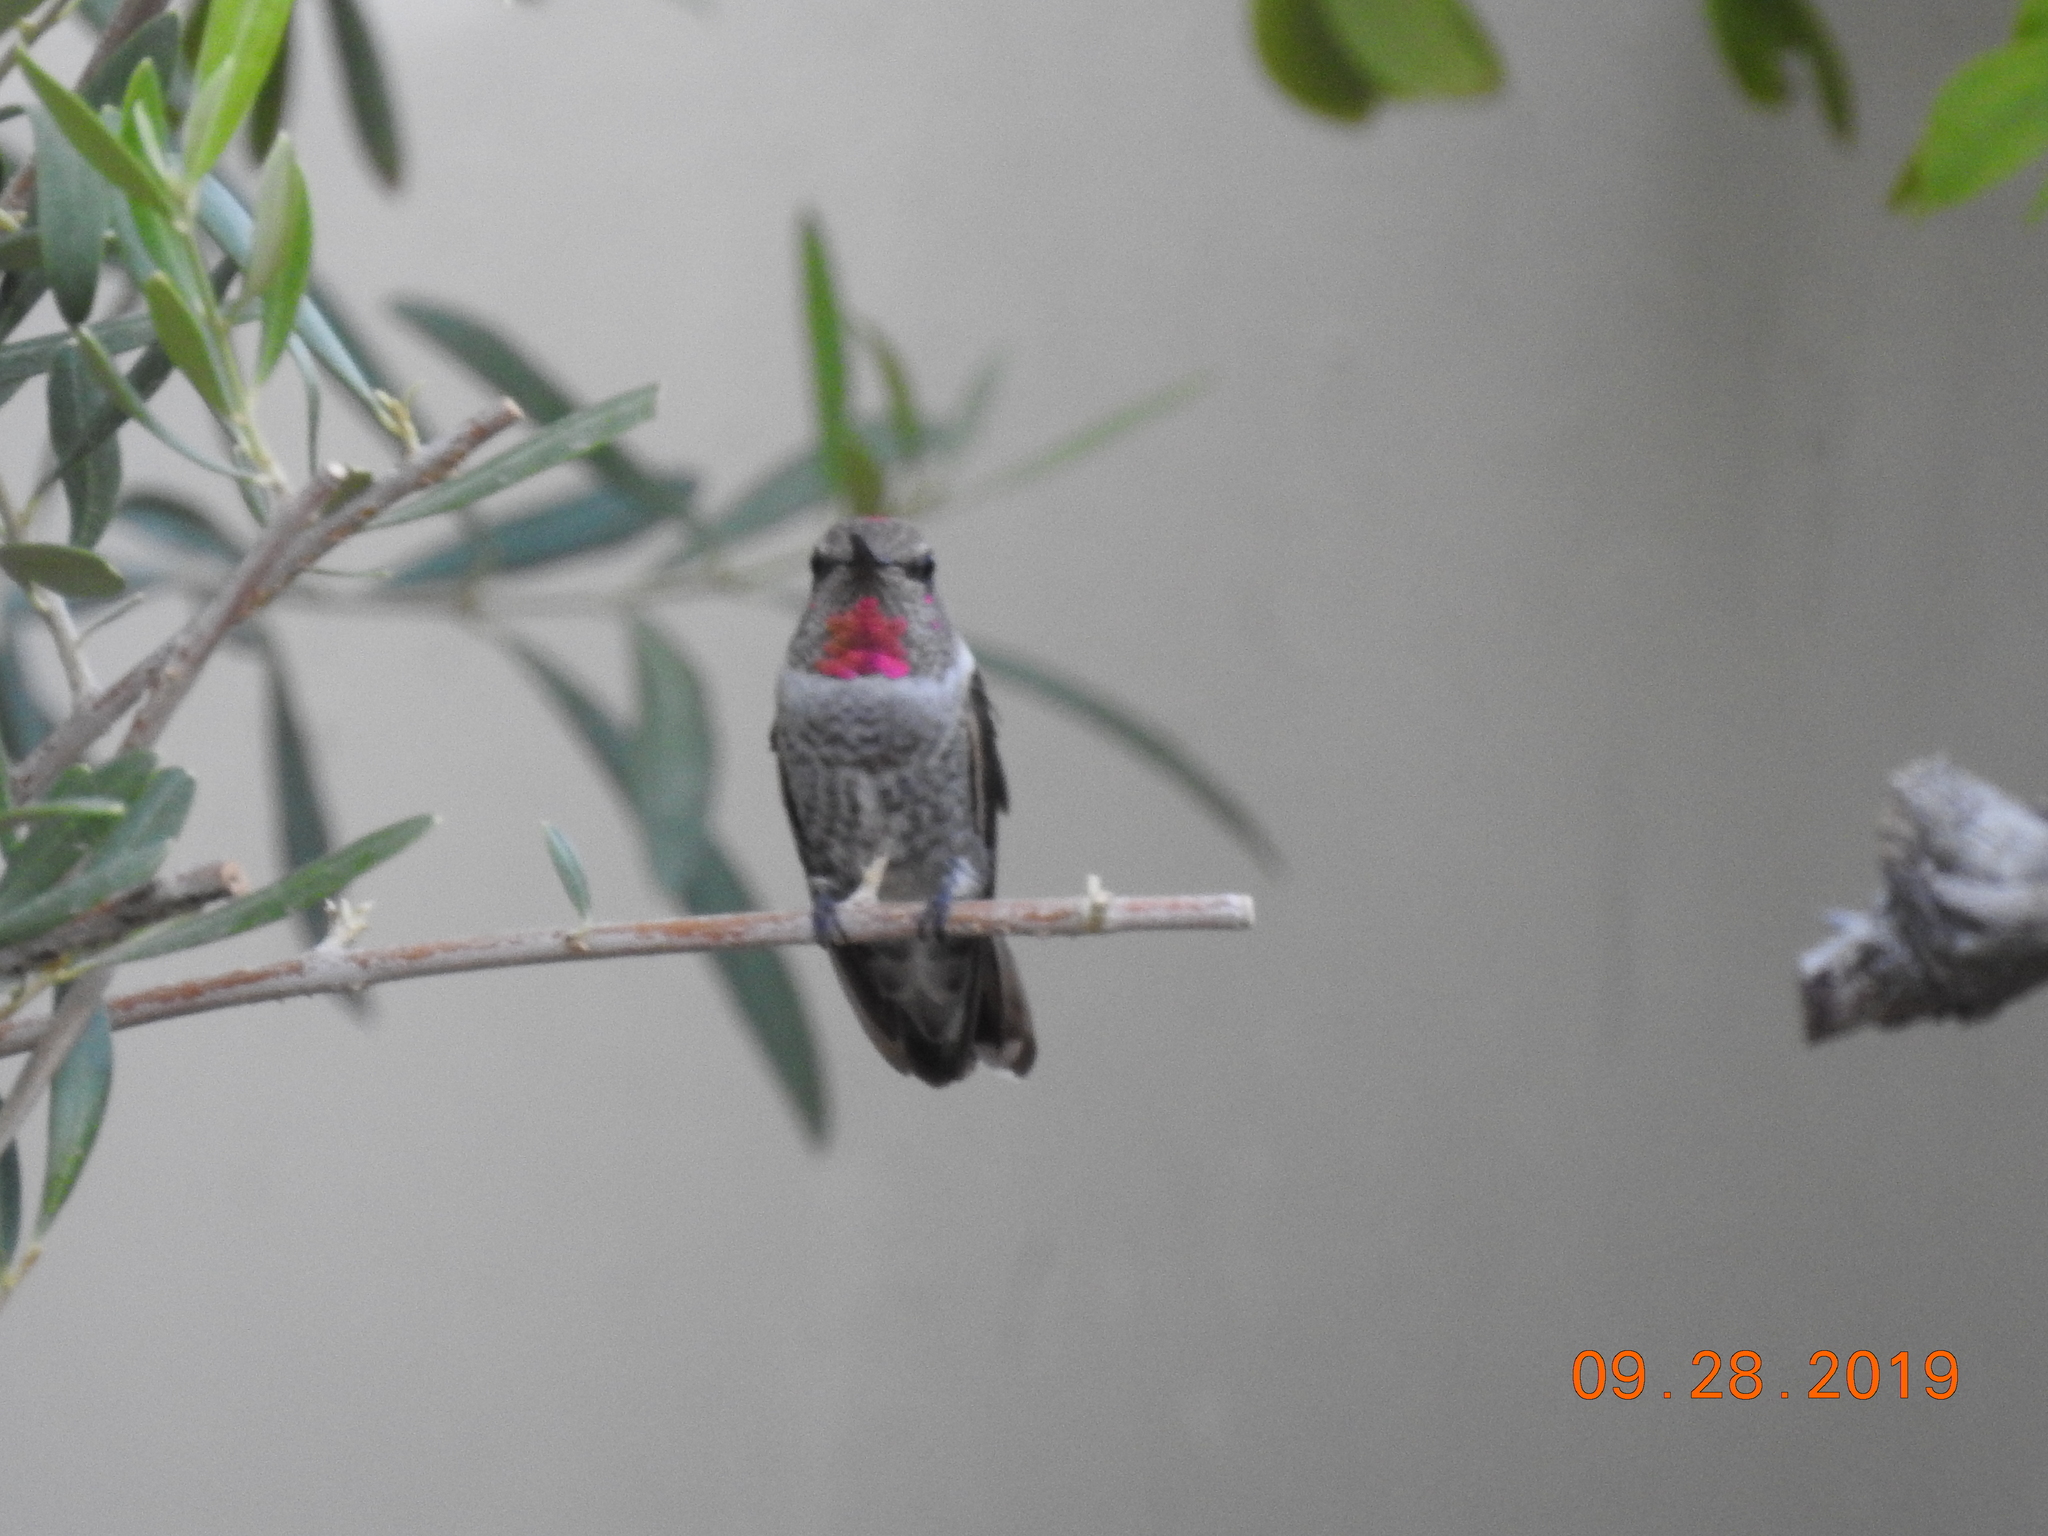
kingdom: Animalia
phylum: Chordata
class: Aves
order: Apodiformes
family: Trochilidae
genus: Calypte
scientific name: Calypte anna
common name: Anna's hummingbird
